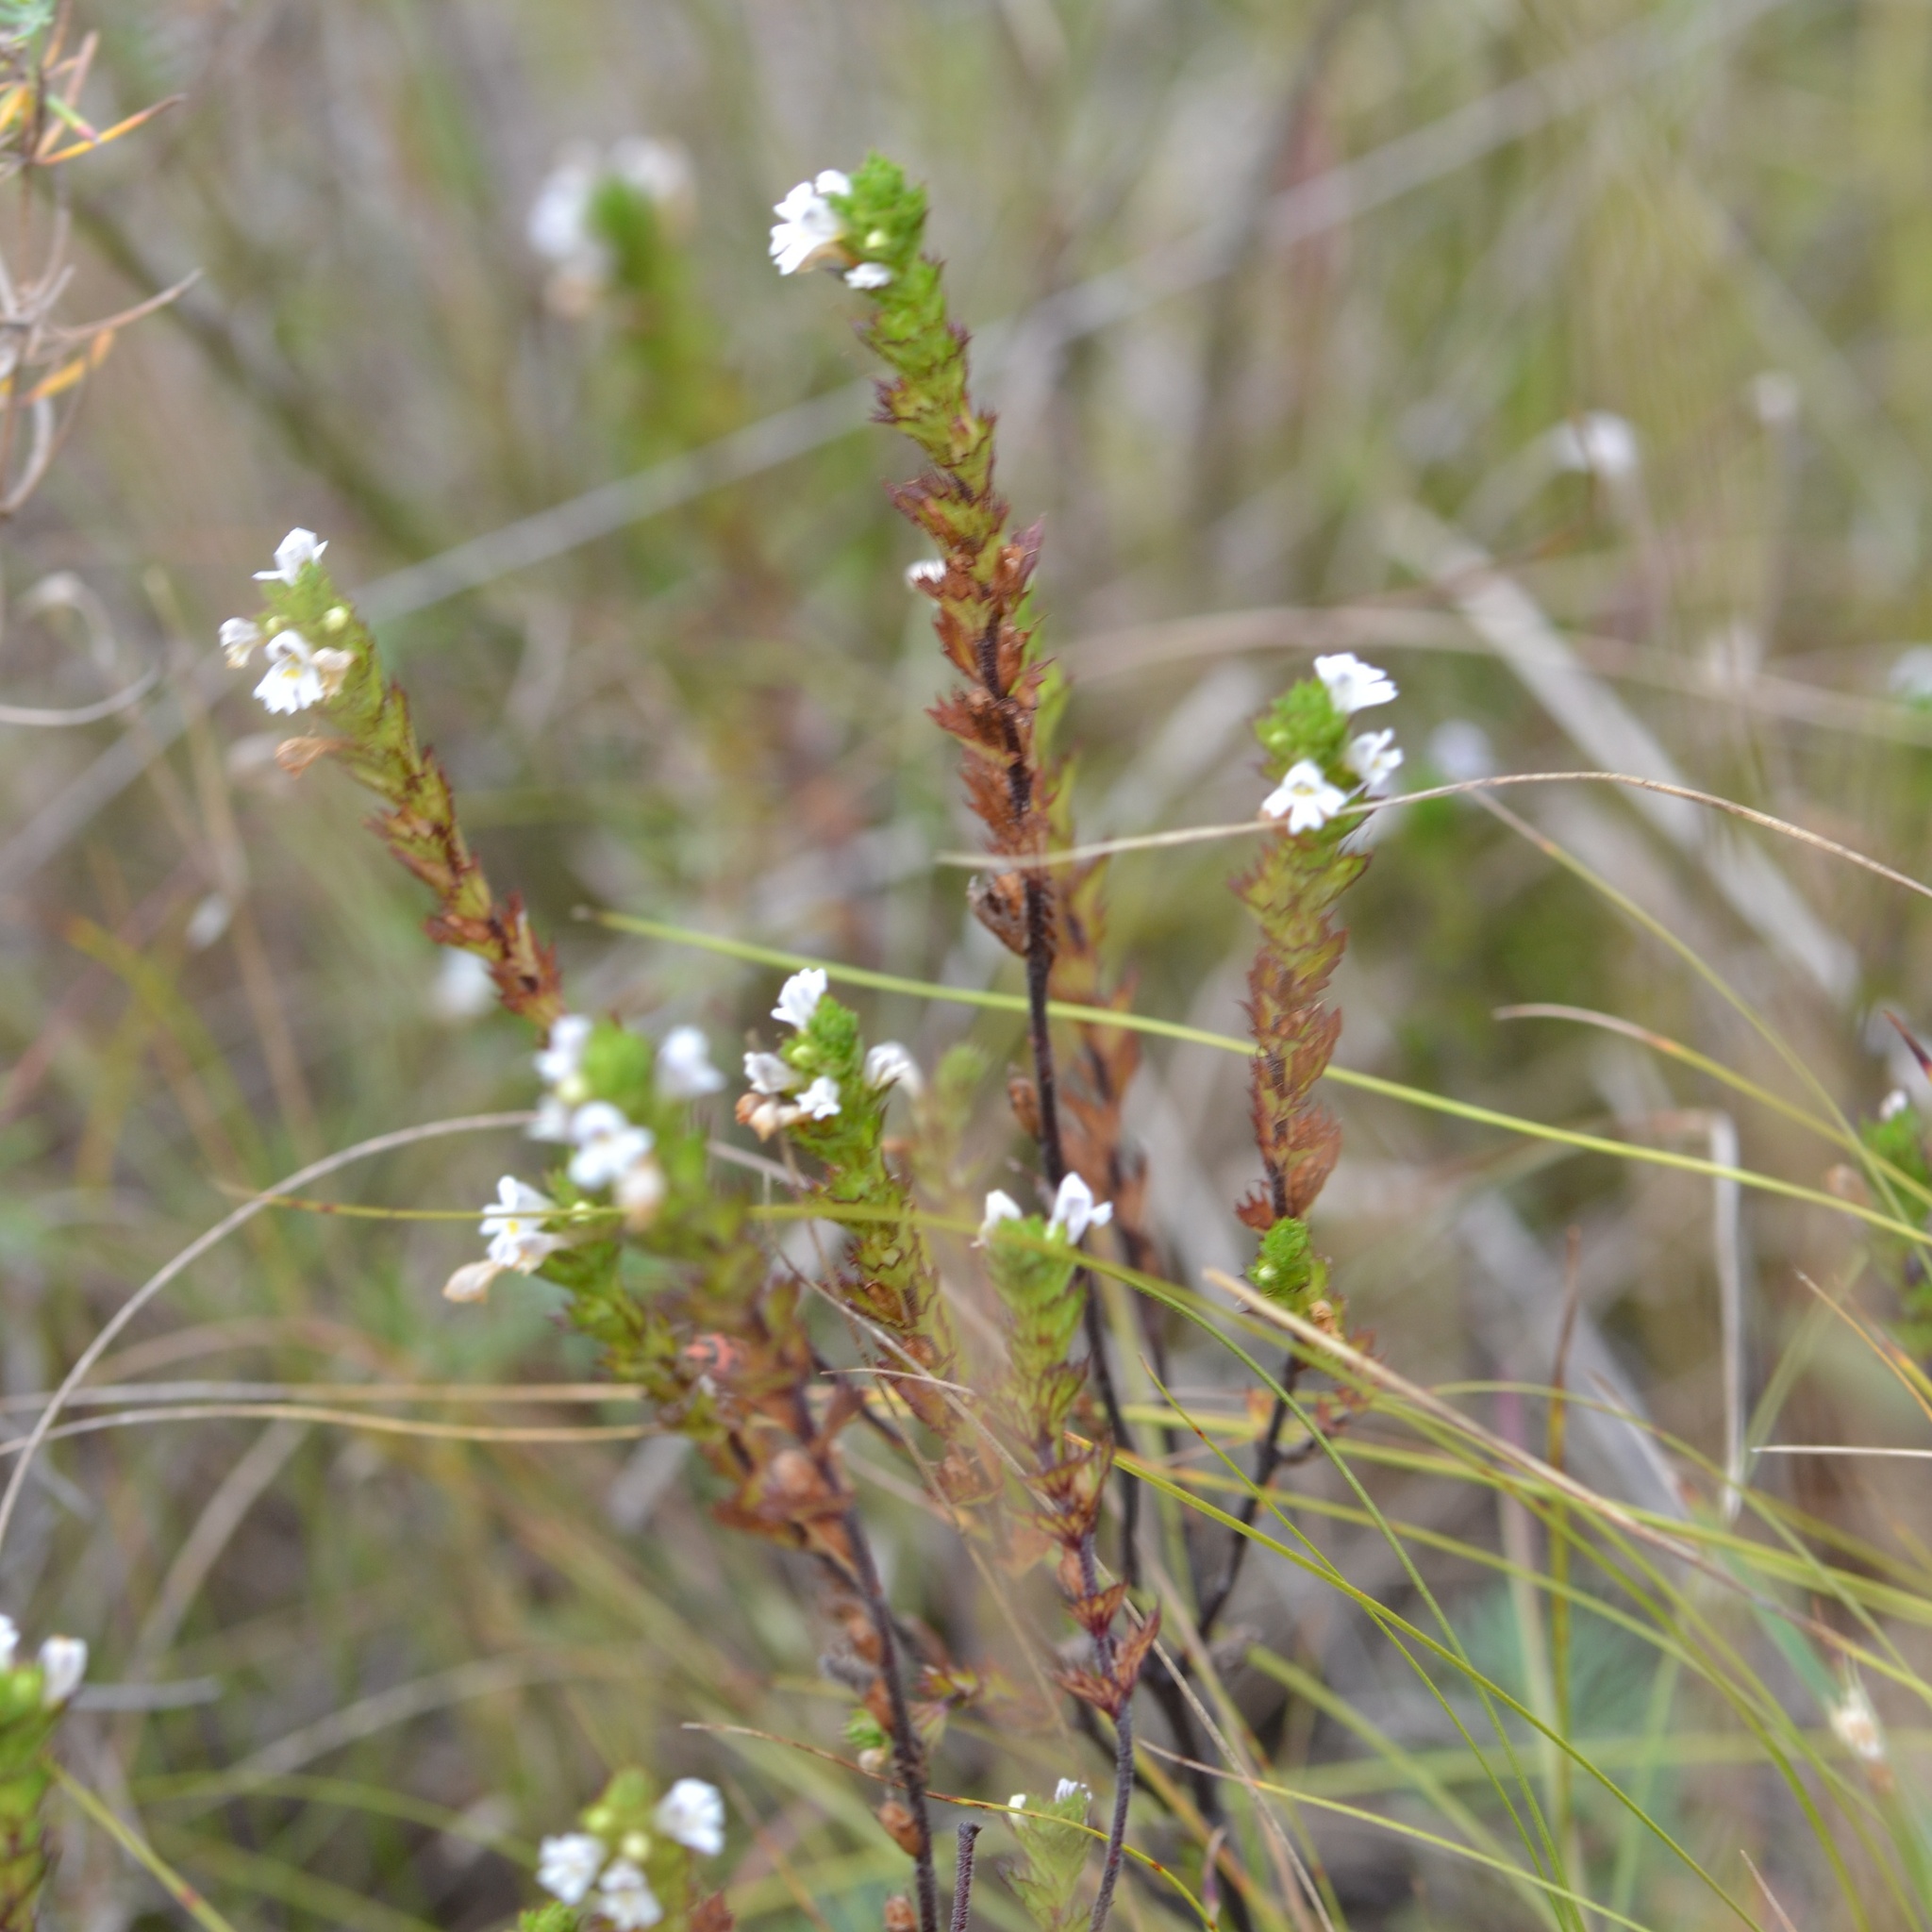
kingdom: Plantae
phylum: Tracheophyta
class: Magnoliopsida
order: Lamiales
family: Orobanchaceae
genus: Euphrasia
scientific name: Euphrasia stricta
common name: Drug eyebright
